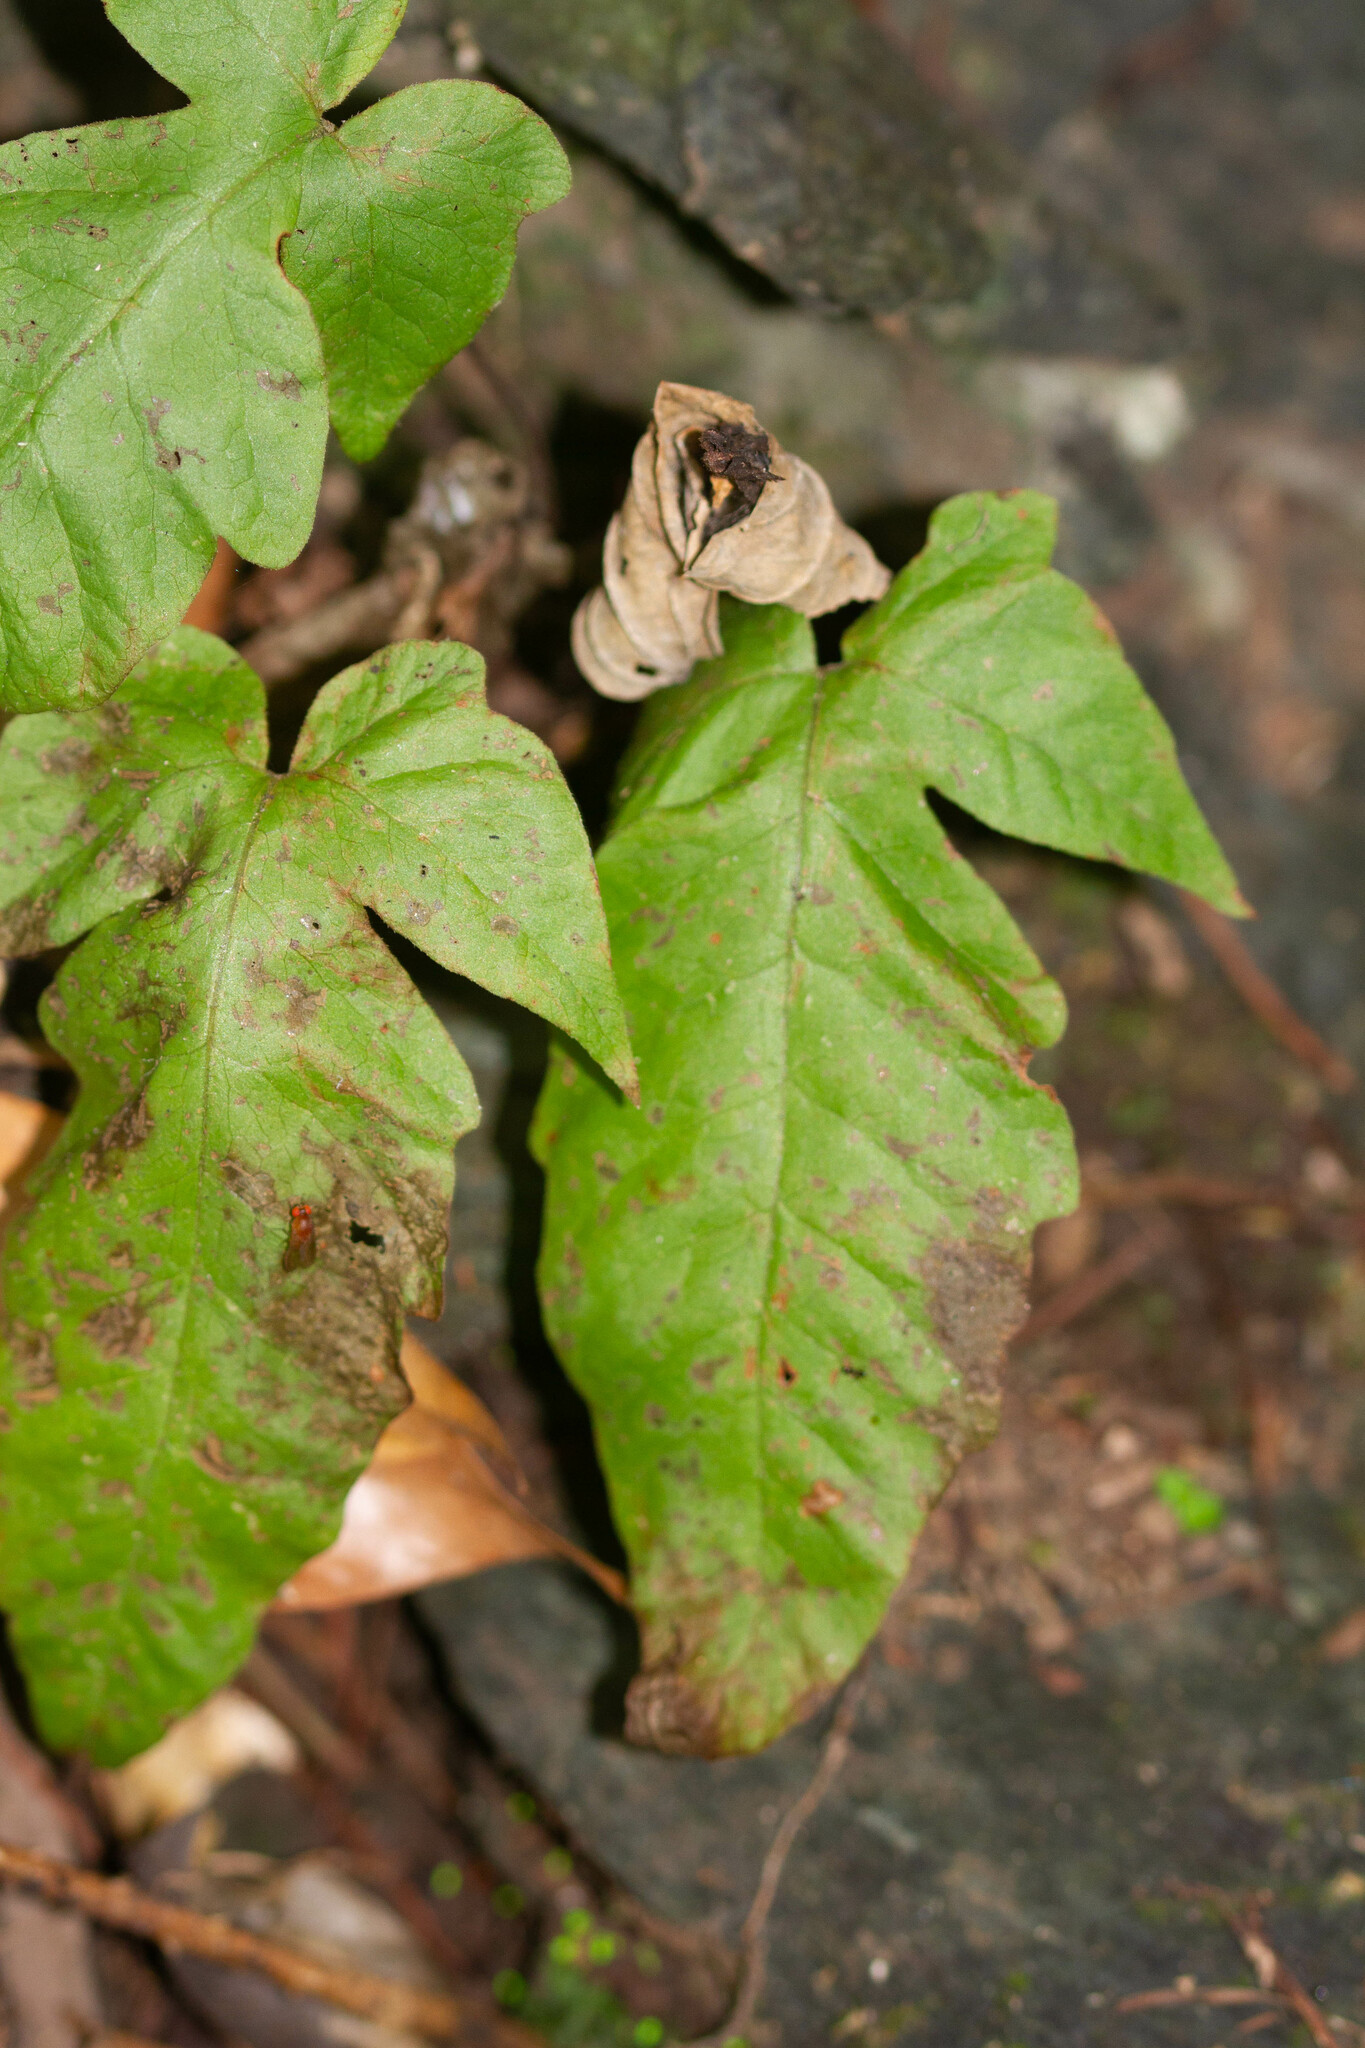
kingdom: Plantae
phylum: Tracheophyta
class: Polypodiopsida
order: Polypodiales
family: Tectariaceae
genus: Tectaria
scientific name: Tectaria trifoliata
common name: Threeleaf halberd fern
